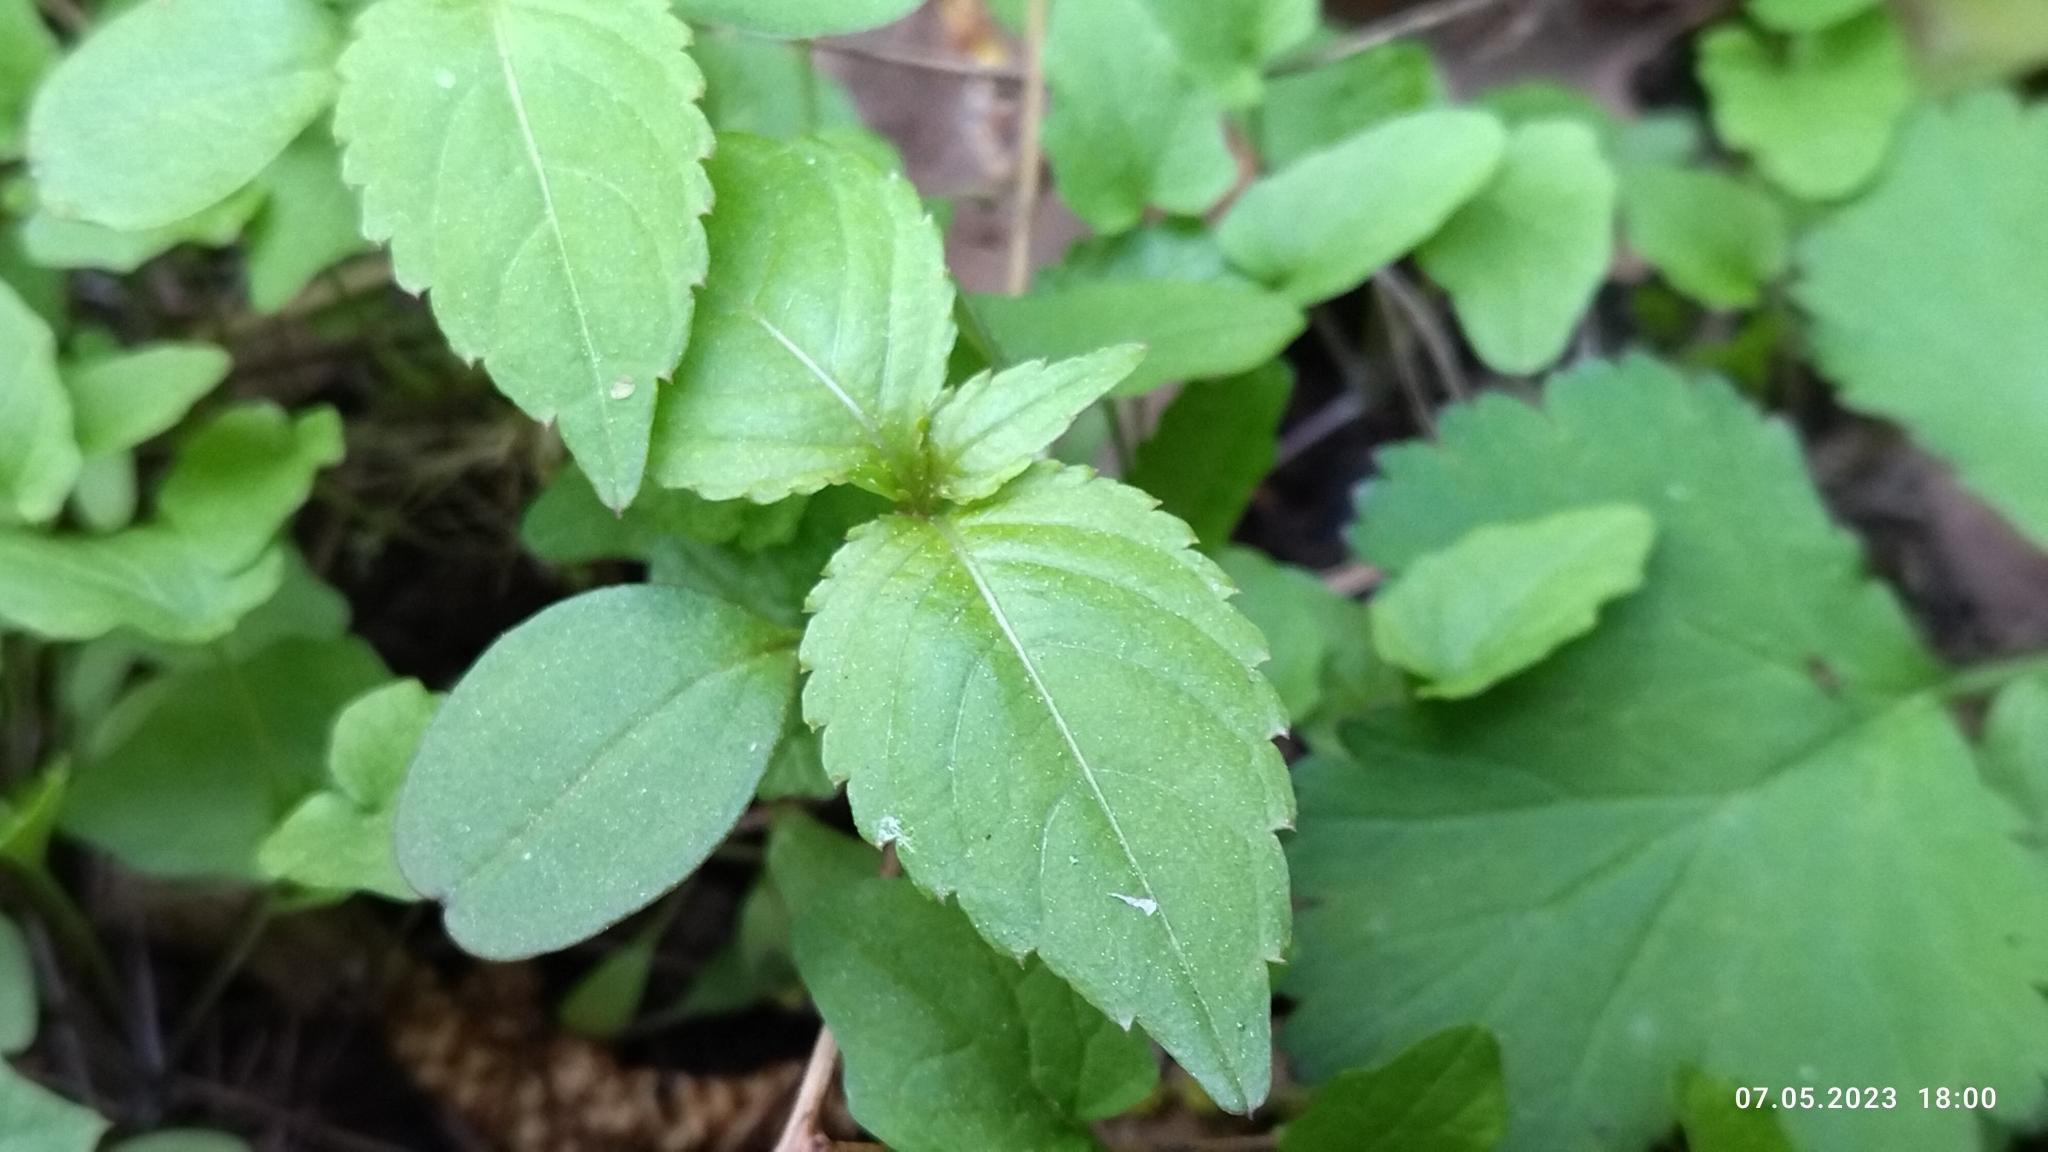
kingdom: Plantae
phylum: Tracheophyta
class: Magnoliopsida
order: Ericales
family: Balsaminaceae
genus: Impatiens
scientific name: Impatiens parviflora
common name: Small balsam
